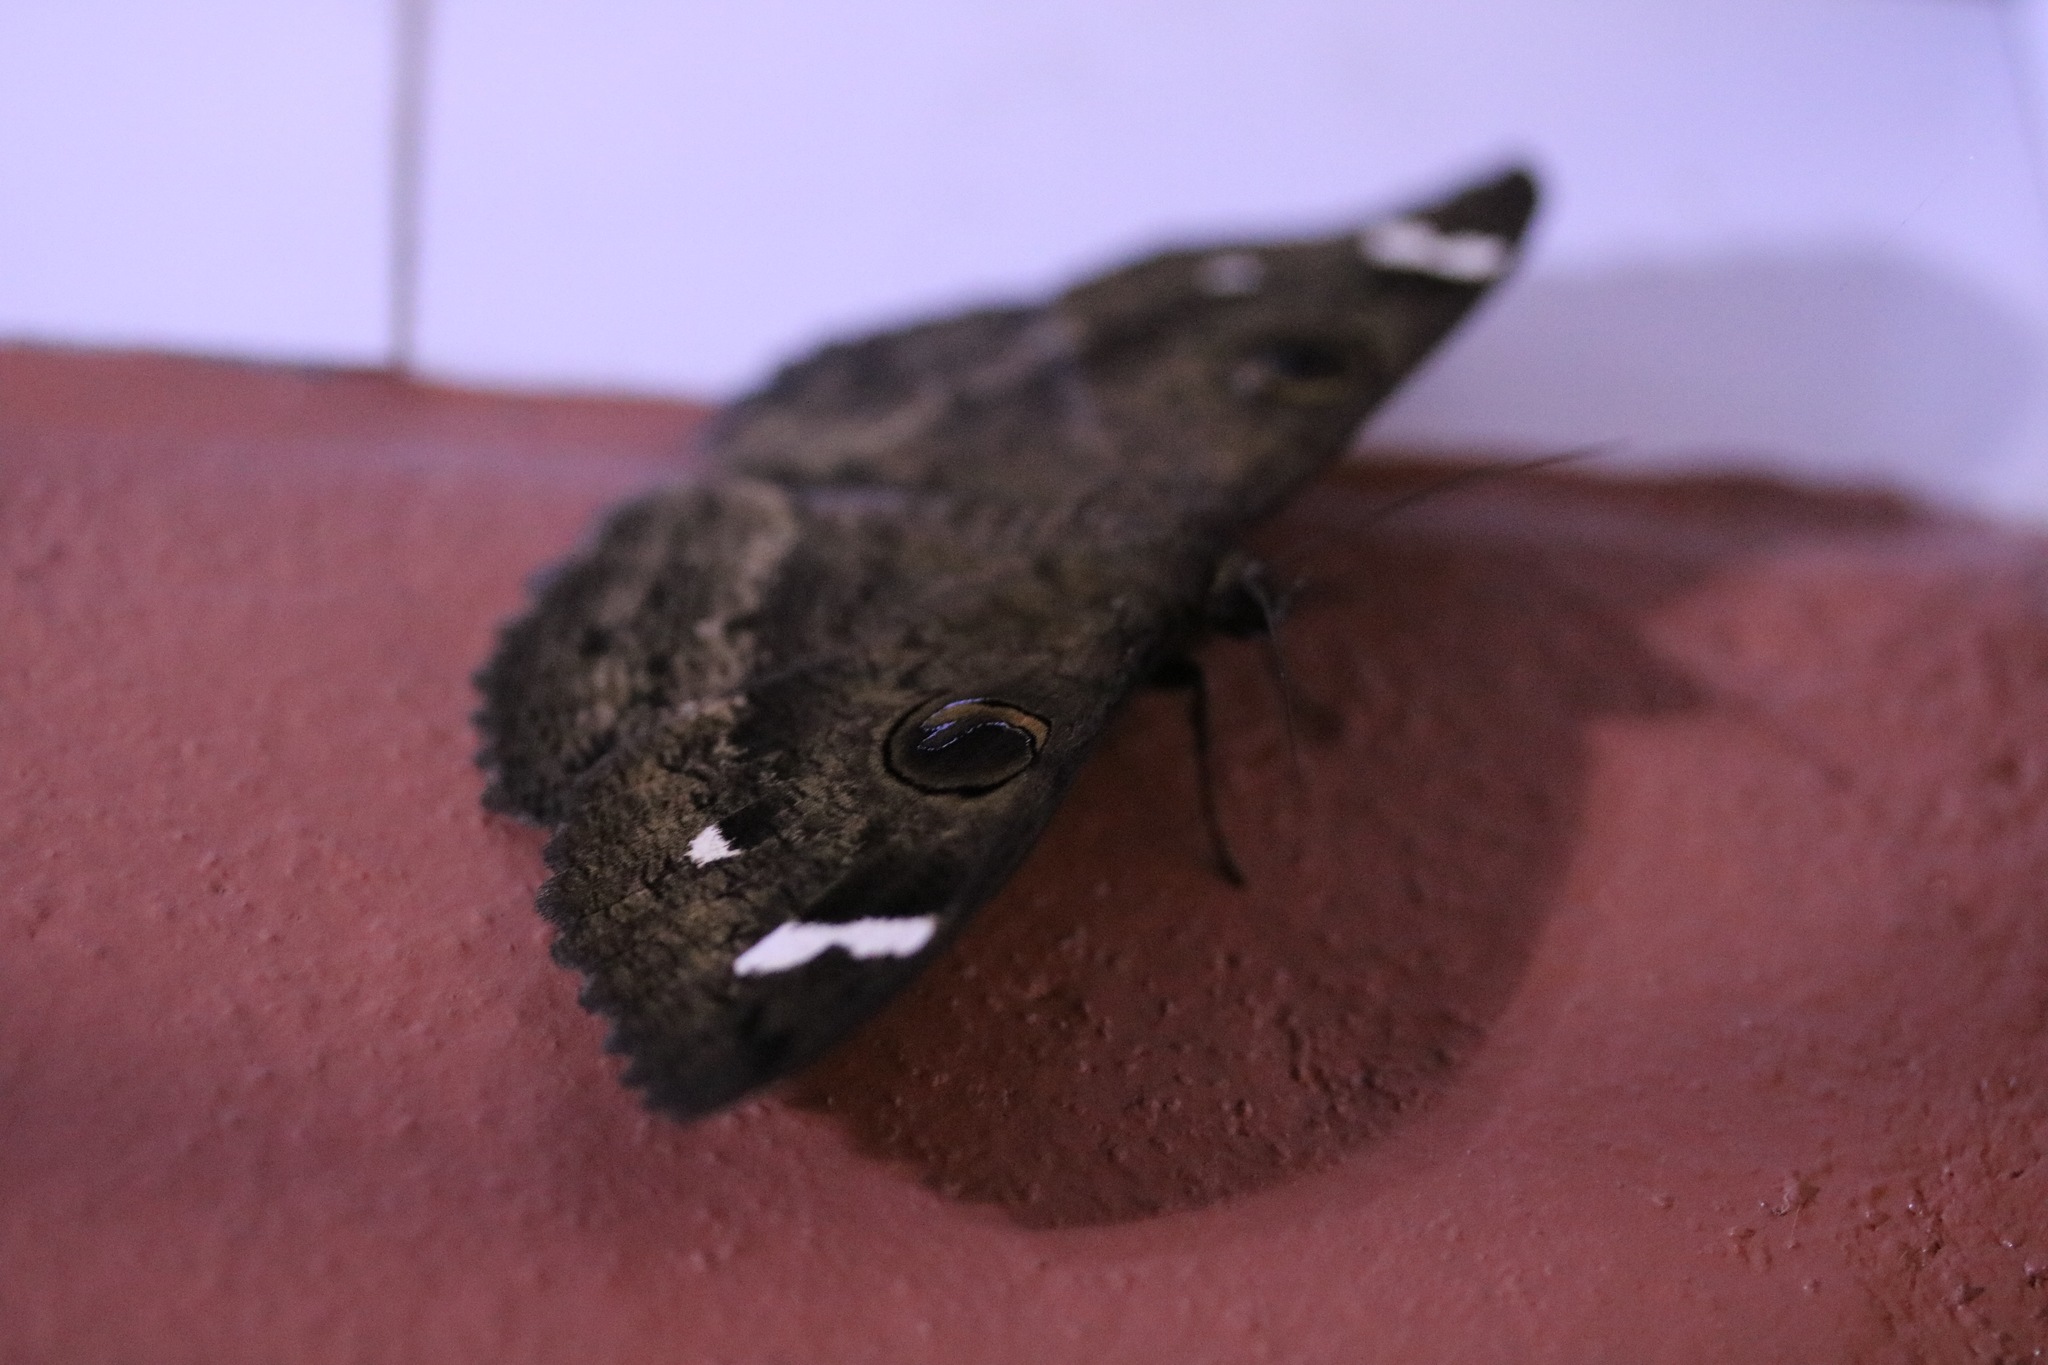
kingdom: Animalia
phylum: Arthropoda
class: Insecta
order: Lepidoptera
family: Erebidae
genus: Erebus
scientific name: Erebus hieroglyphica
